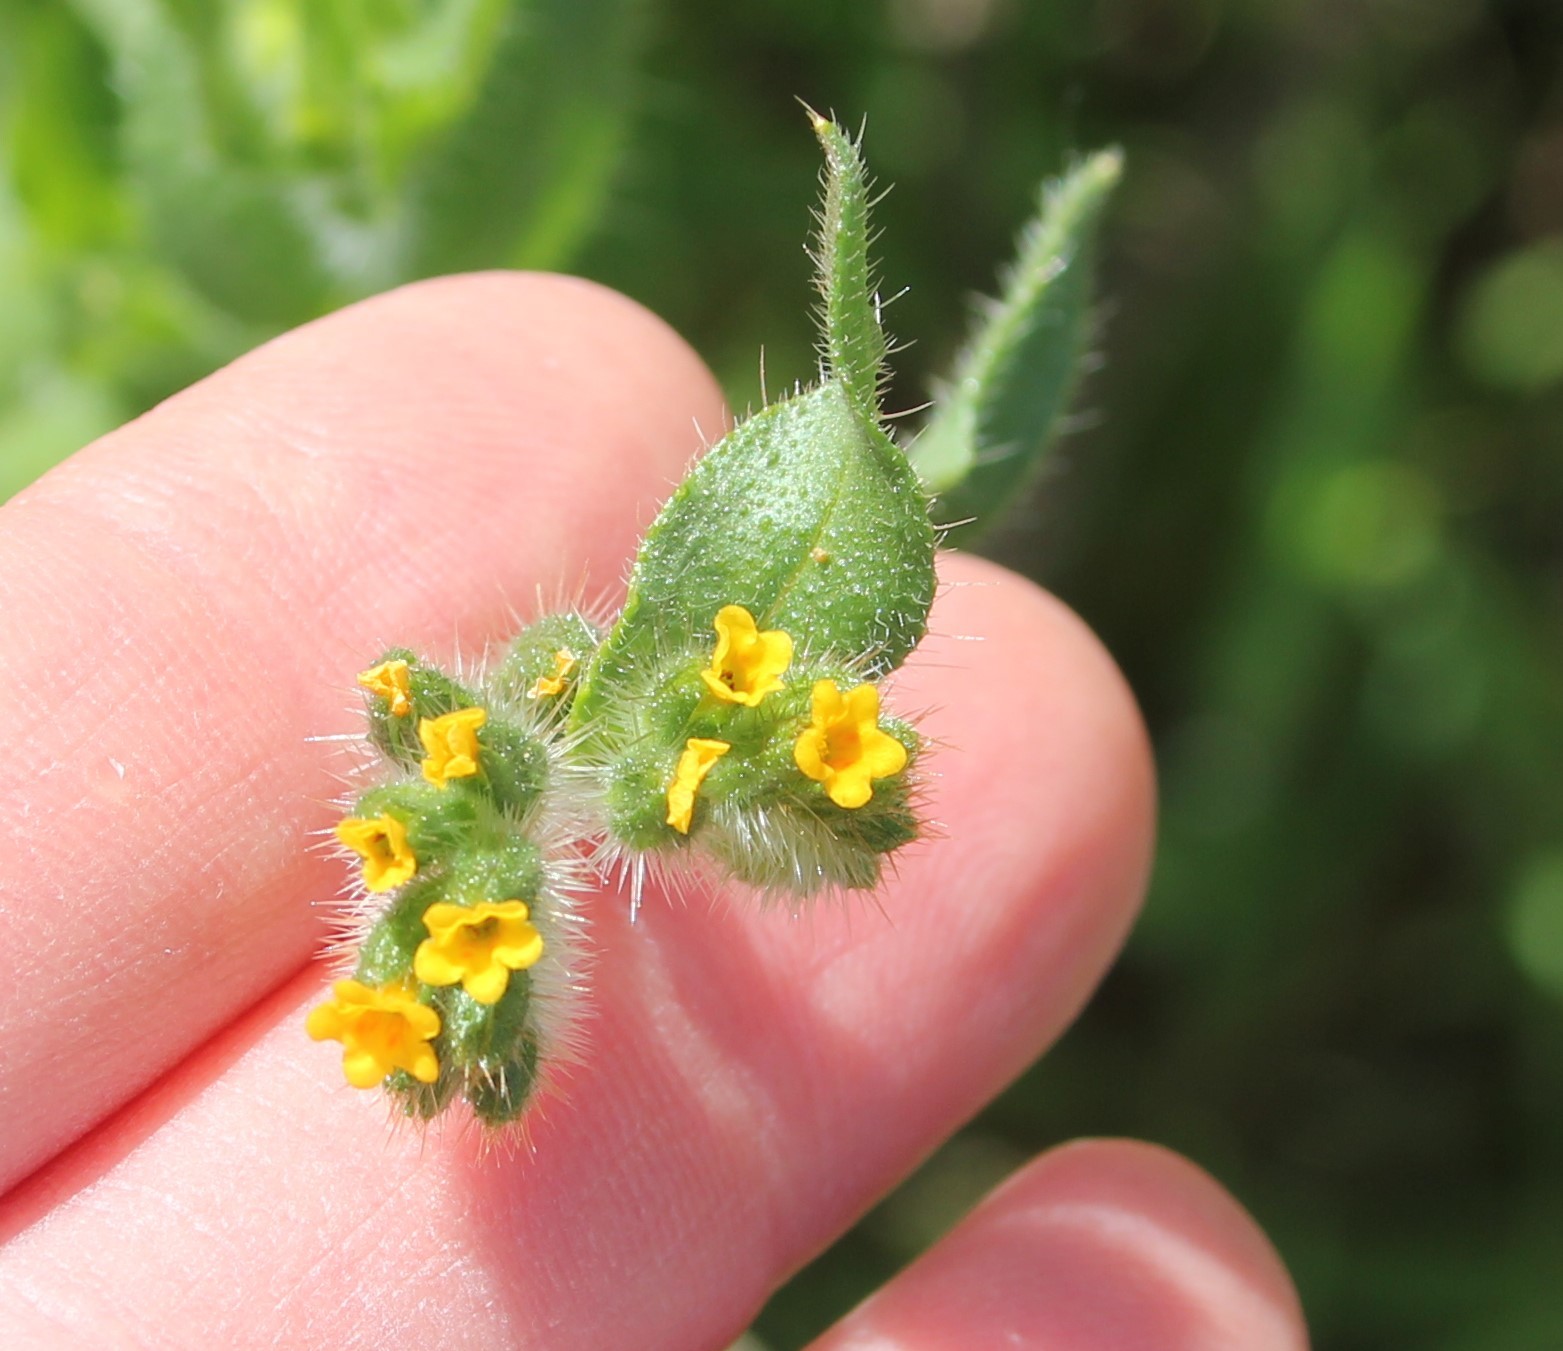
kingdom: Plantae
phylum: Tracheophyta
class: Magnoliopsida
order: Boraginales
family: Boraginaceae
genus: Amsinckia
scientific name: Amsinckia menziesii
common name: Menzies' fiddleneck
